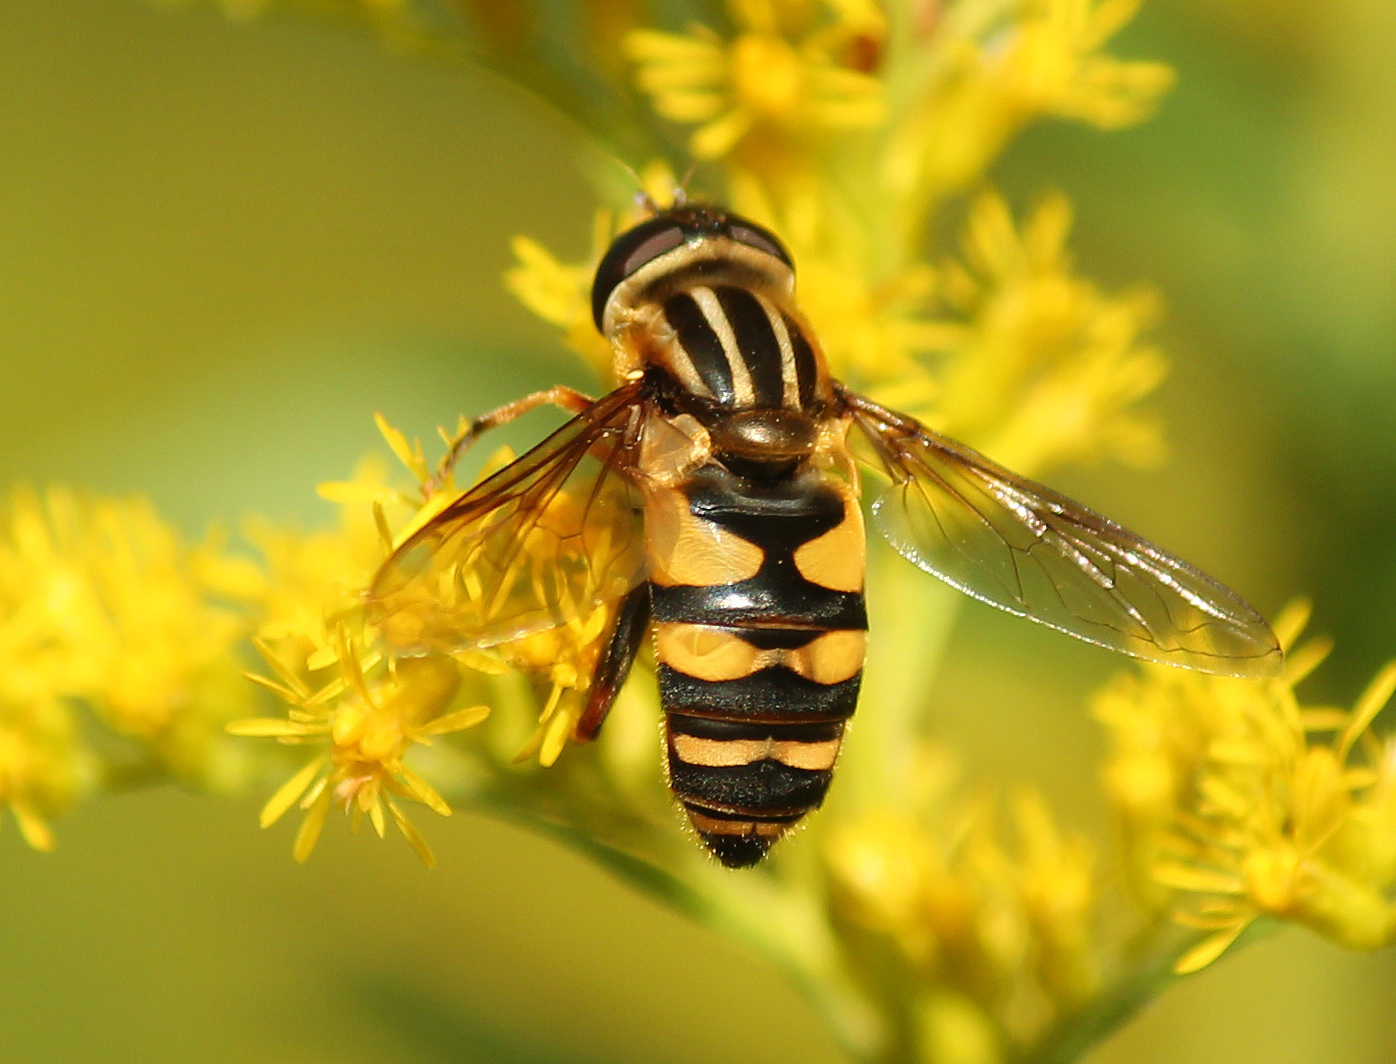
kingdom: Animalia
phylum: Arthropoda
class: Insecta
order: Diptera
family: Syrphidae
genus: Helophilus
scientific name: Helophilus fasciatus
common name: Narrow-headed marsh fly
